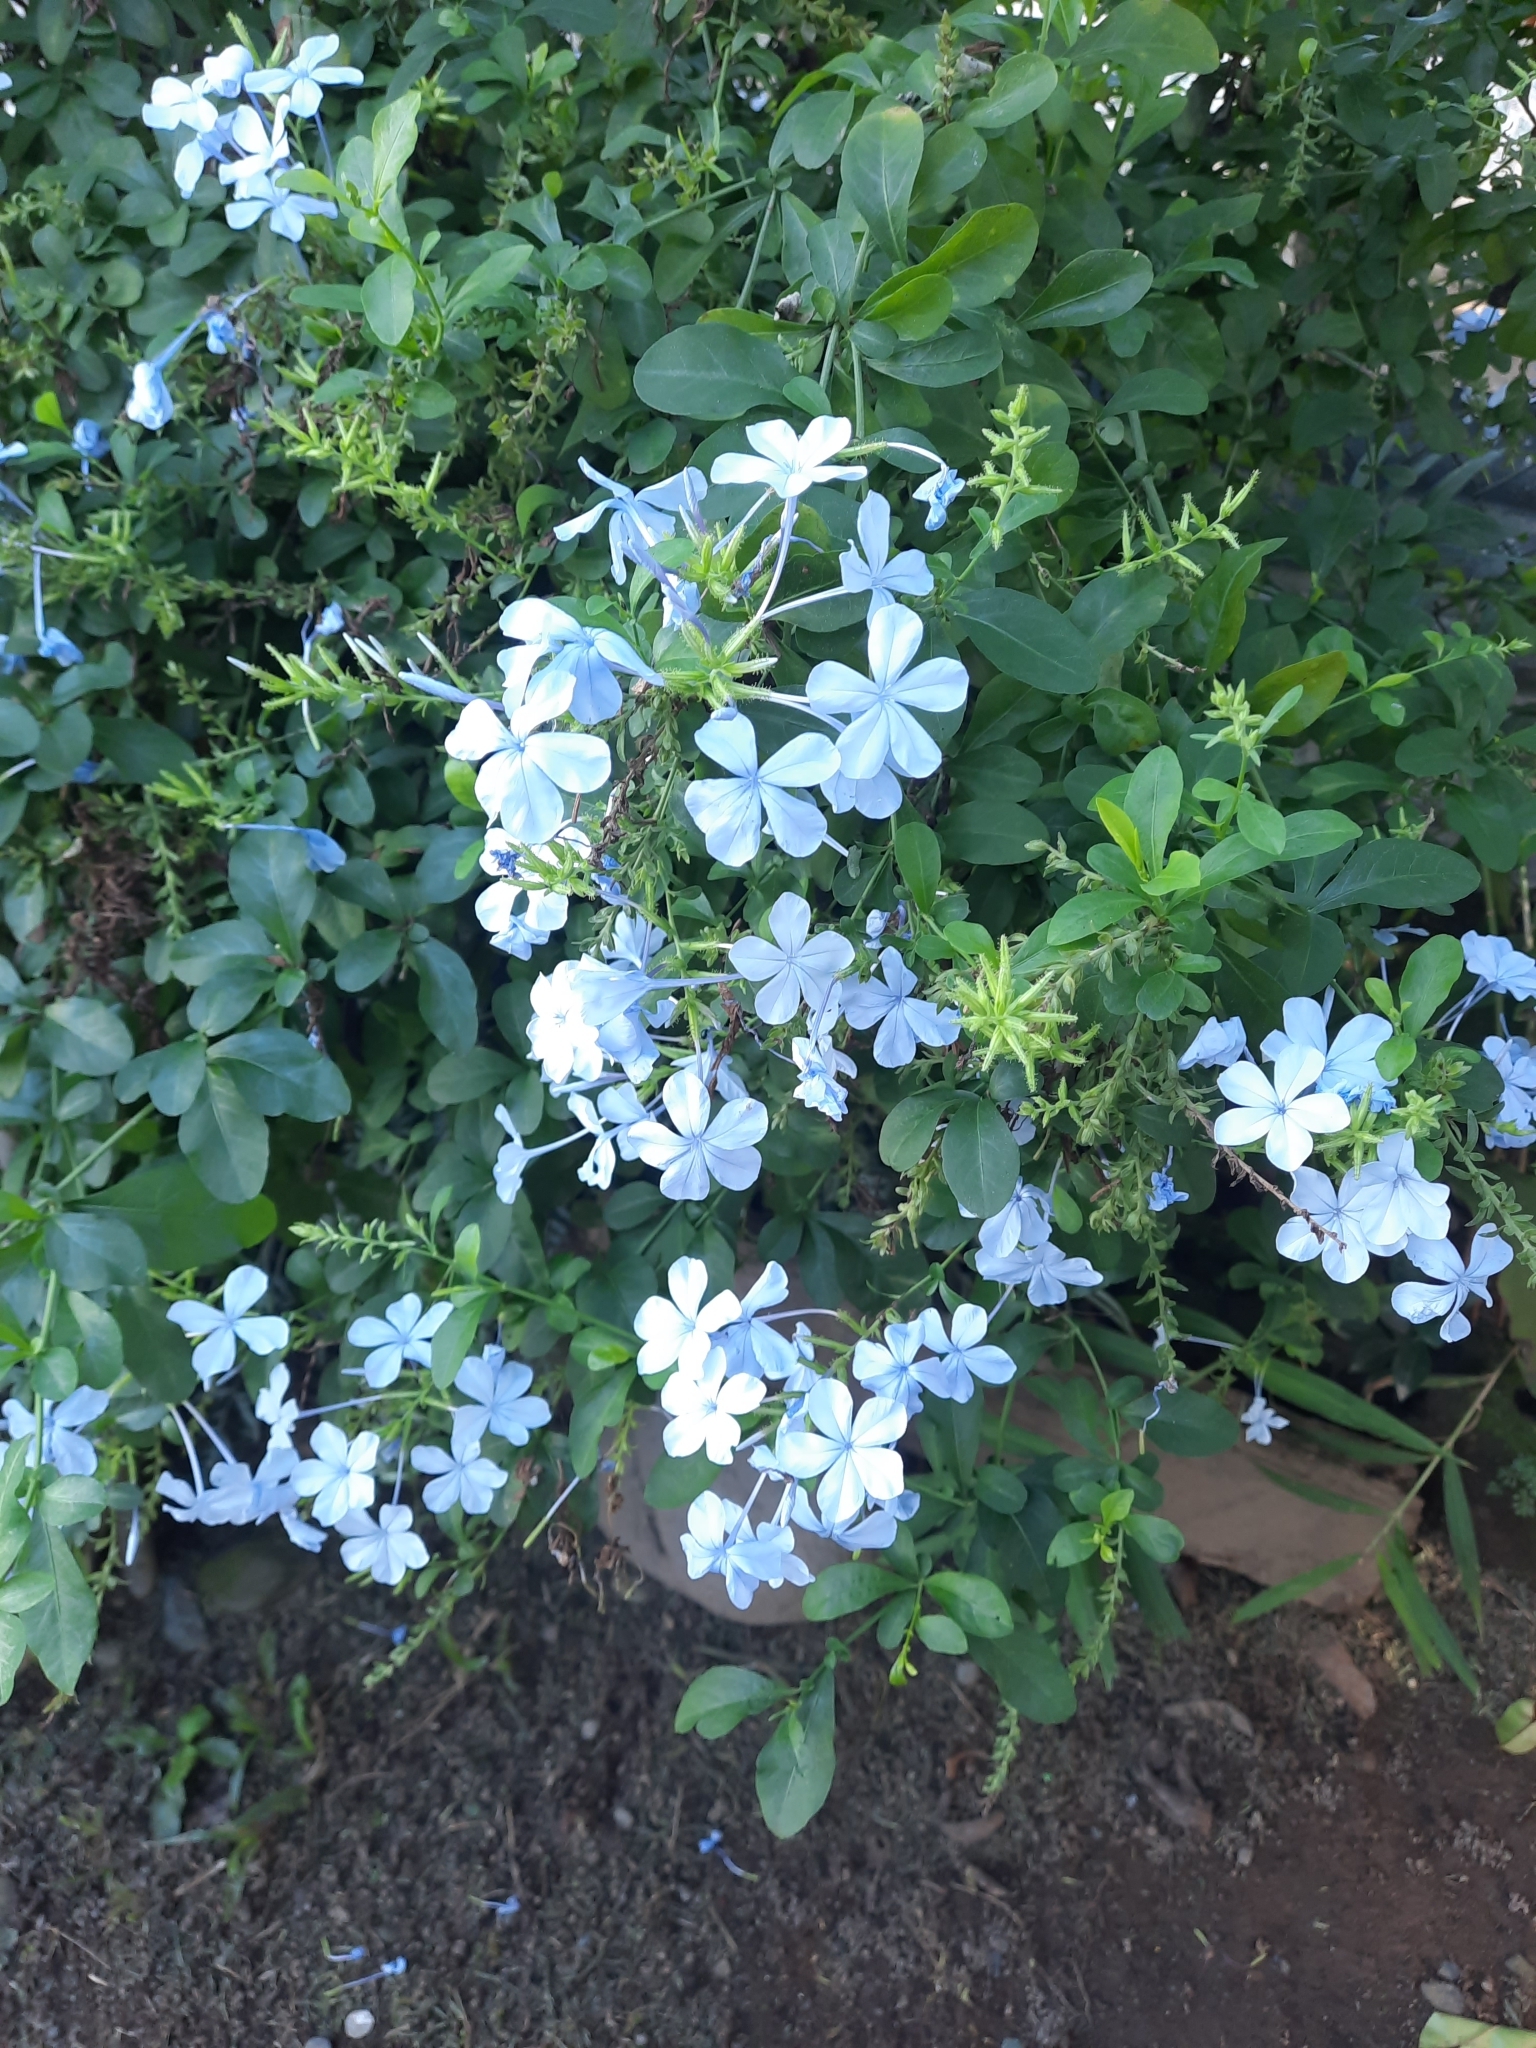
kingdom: Plantae
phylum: Tracheophyta
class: Magnoliopsida
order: Caryophyllales
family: Plumbaginaceae
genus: Plumbago
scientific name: Plumbago auriculata
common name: Cape leadwort
